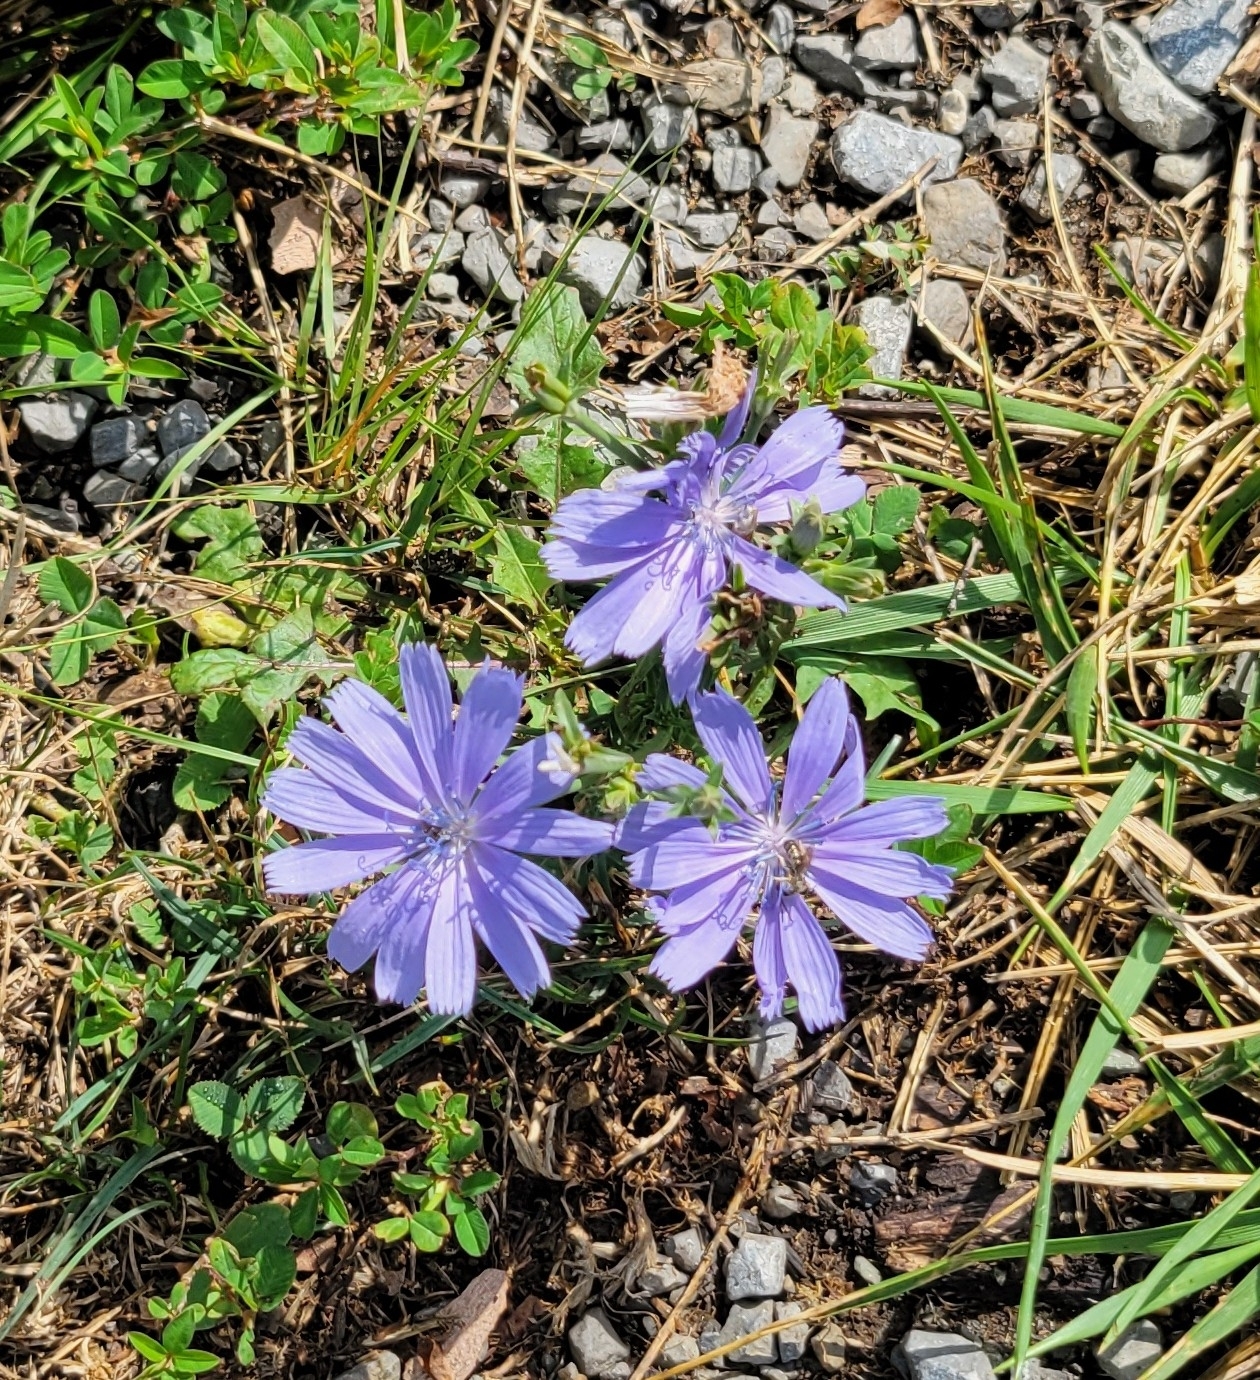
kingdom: Plantae
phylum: Tracheophyta
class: Magnoliopsida
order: Asterales
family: Asteraceae
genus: Cichorium
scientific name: Cichorium intybus
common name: Chicory
